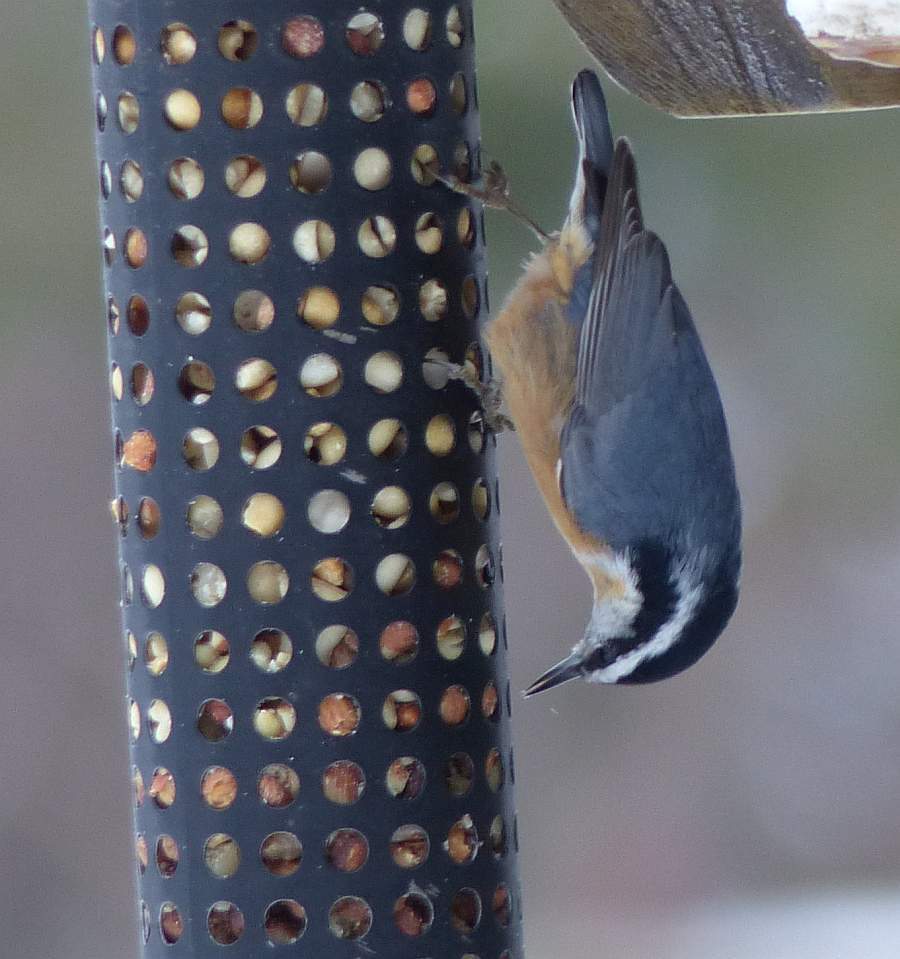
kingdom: Animalia
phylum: Chordata
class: Aves
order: Passeriformes
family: Sittidae
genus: Sitta
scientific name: Sitta canadensis
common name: Red-breasted nuthatch
